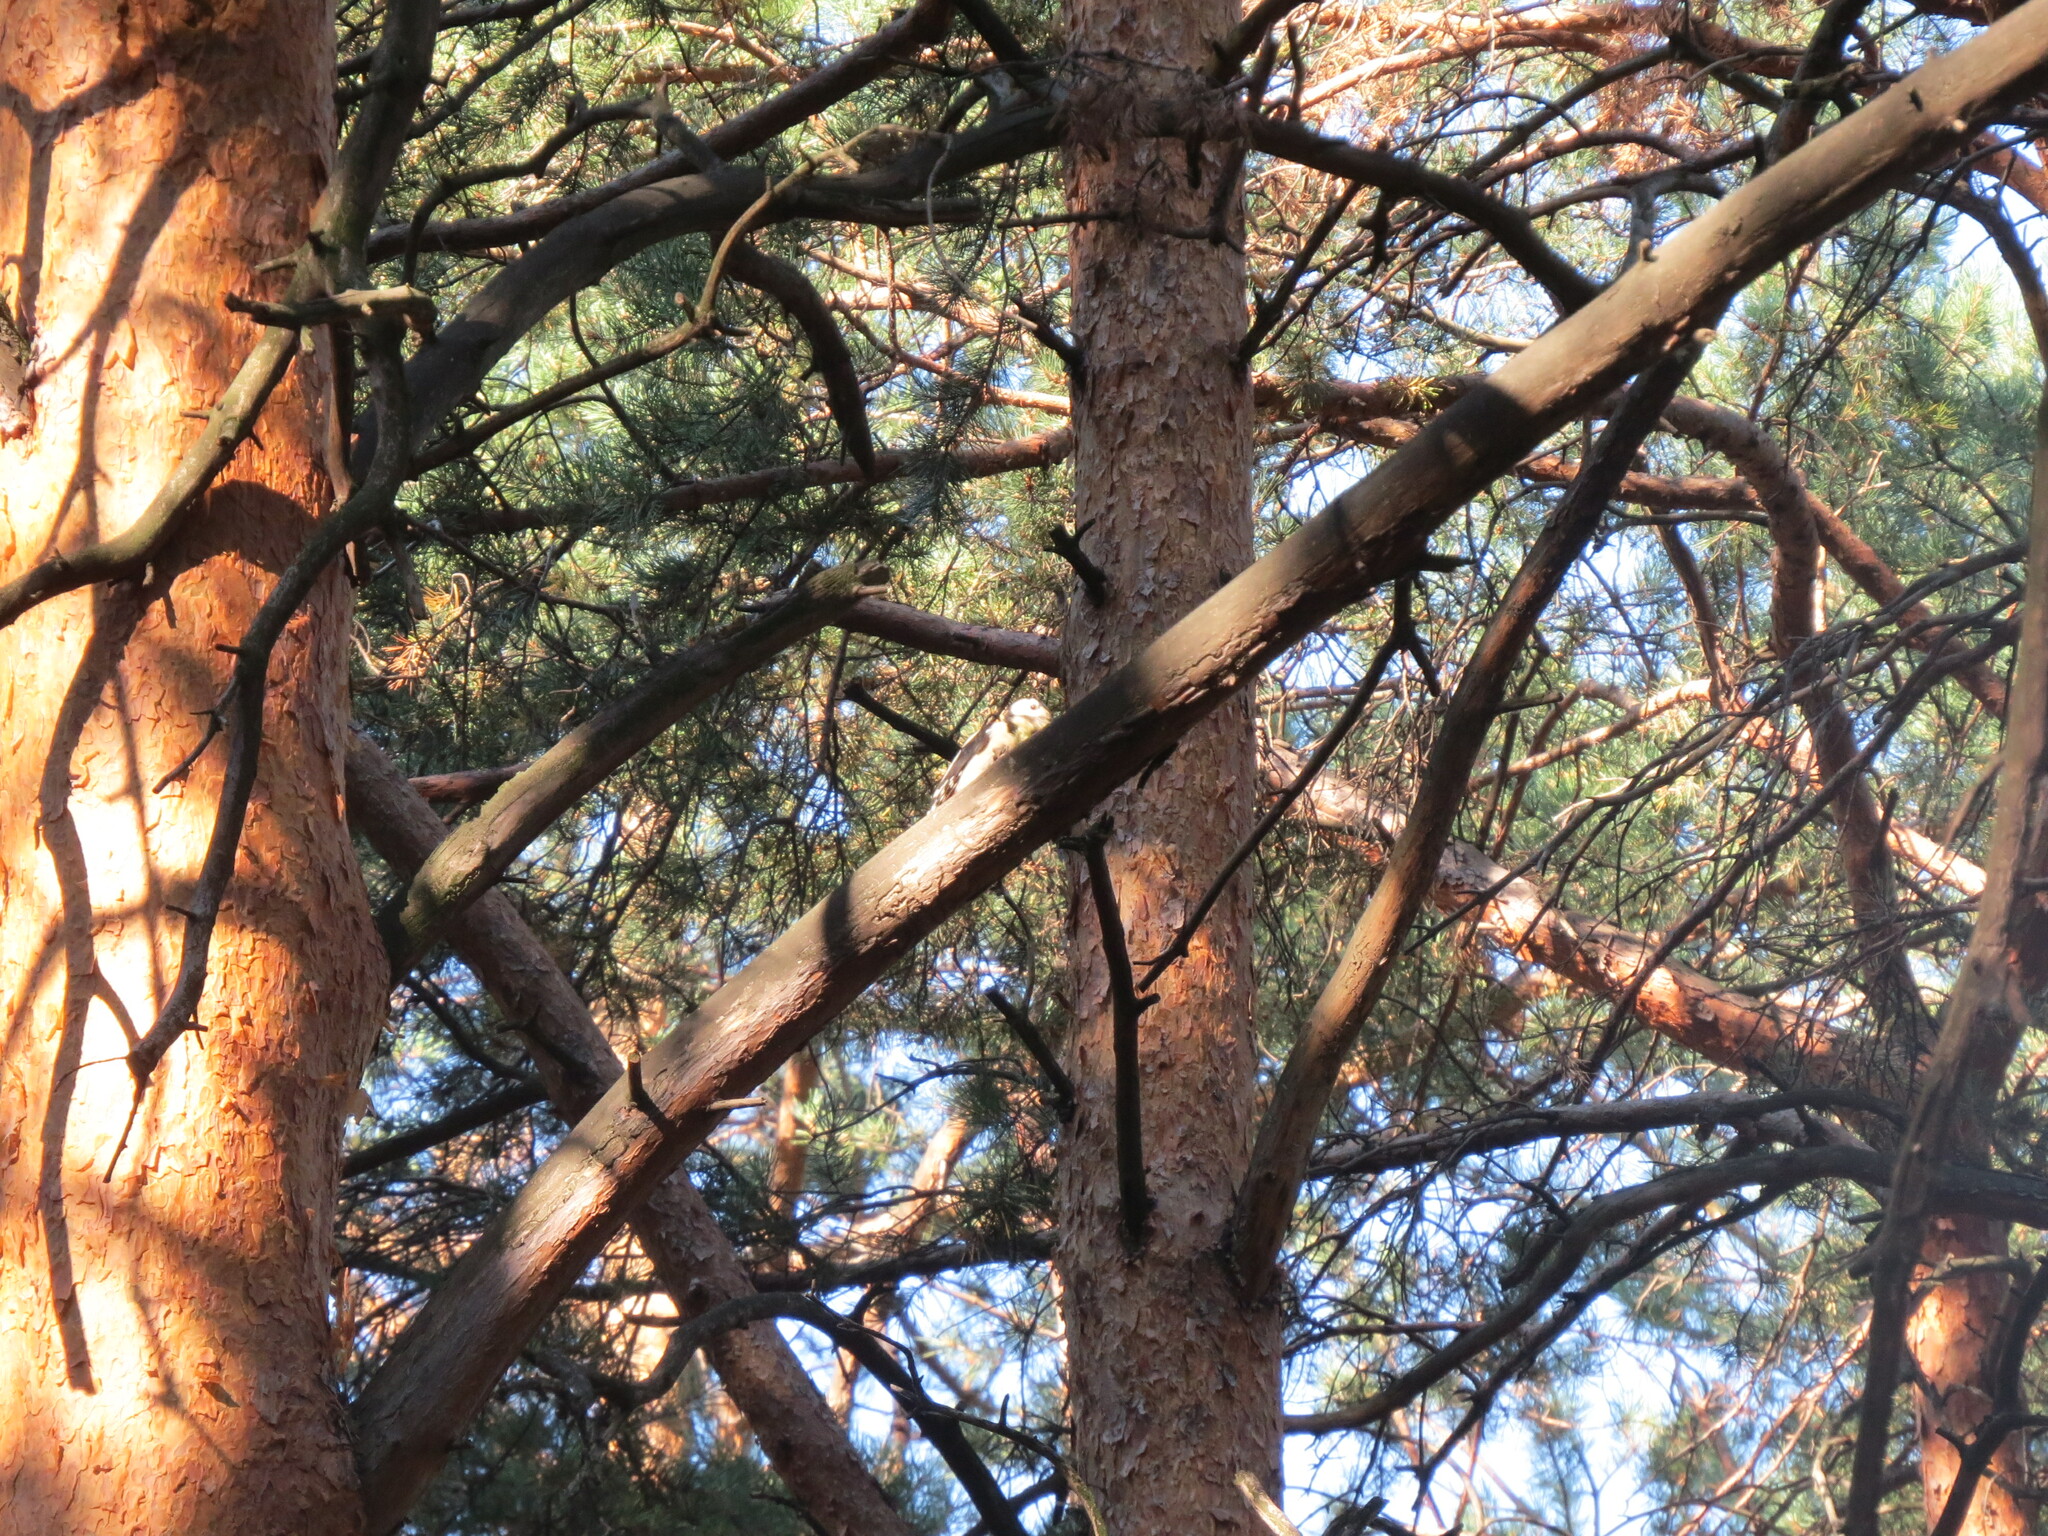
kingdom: Animalia
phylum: Chordata
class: Aves
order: Piciformes
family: Picidae
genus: Dendrocopos
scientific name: Dendrocopos major
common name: Great spotted woodpecker
